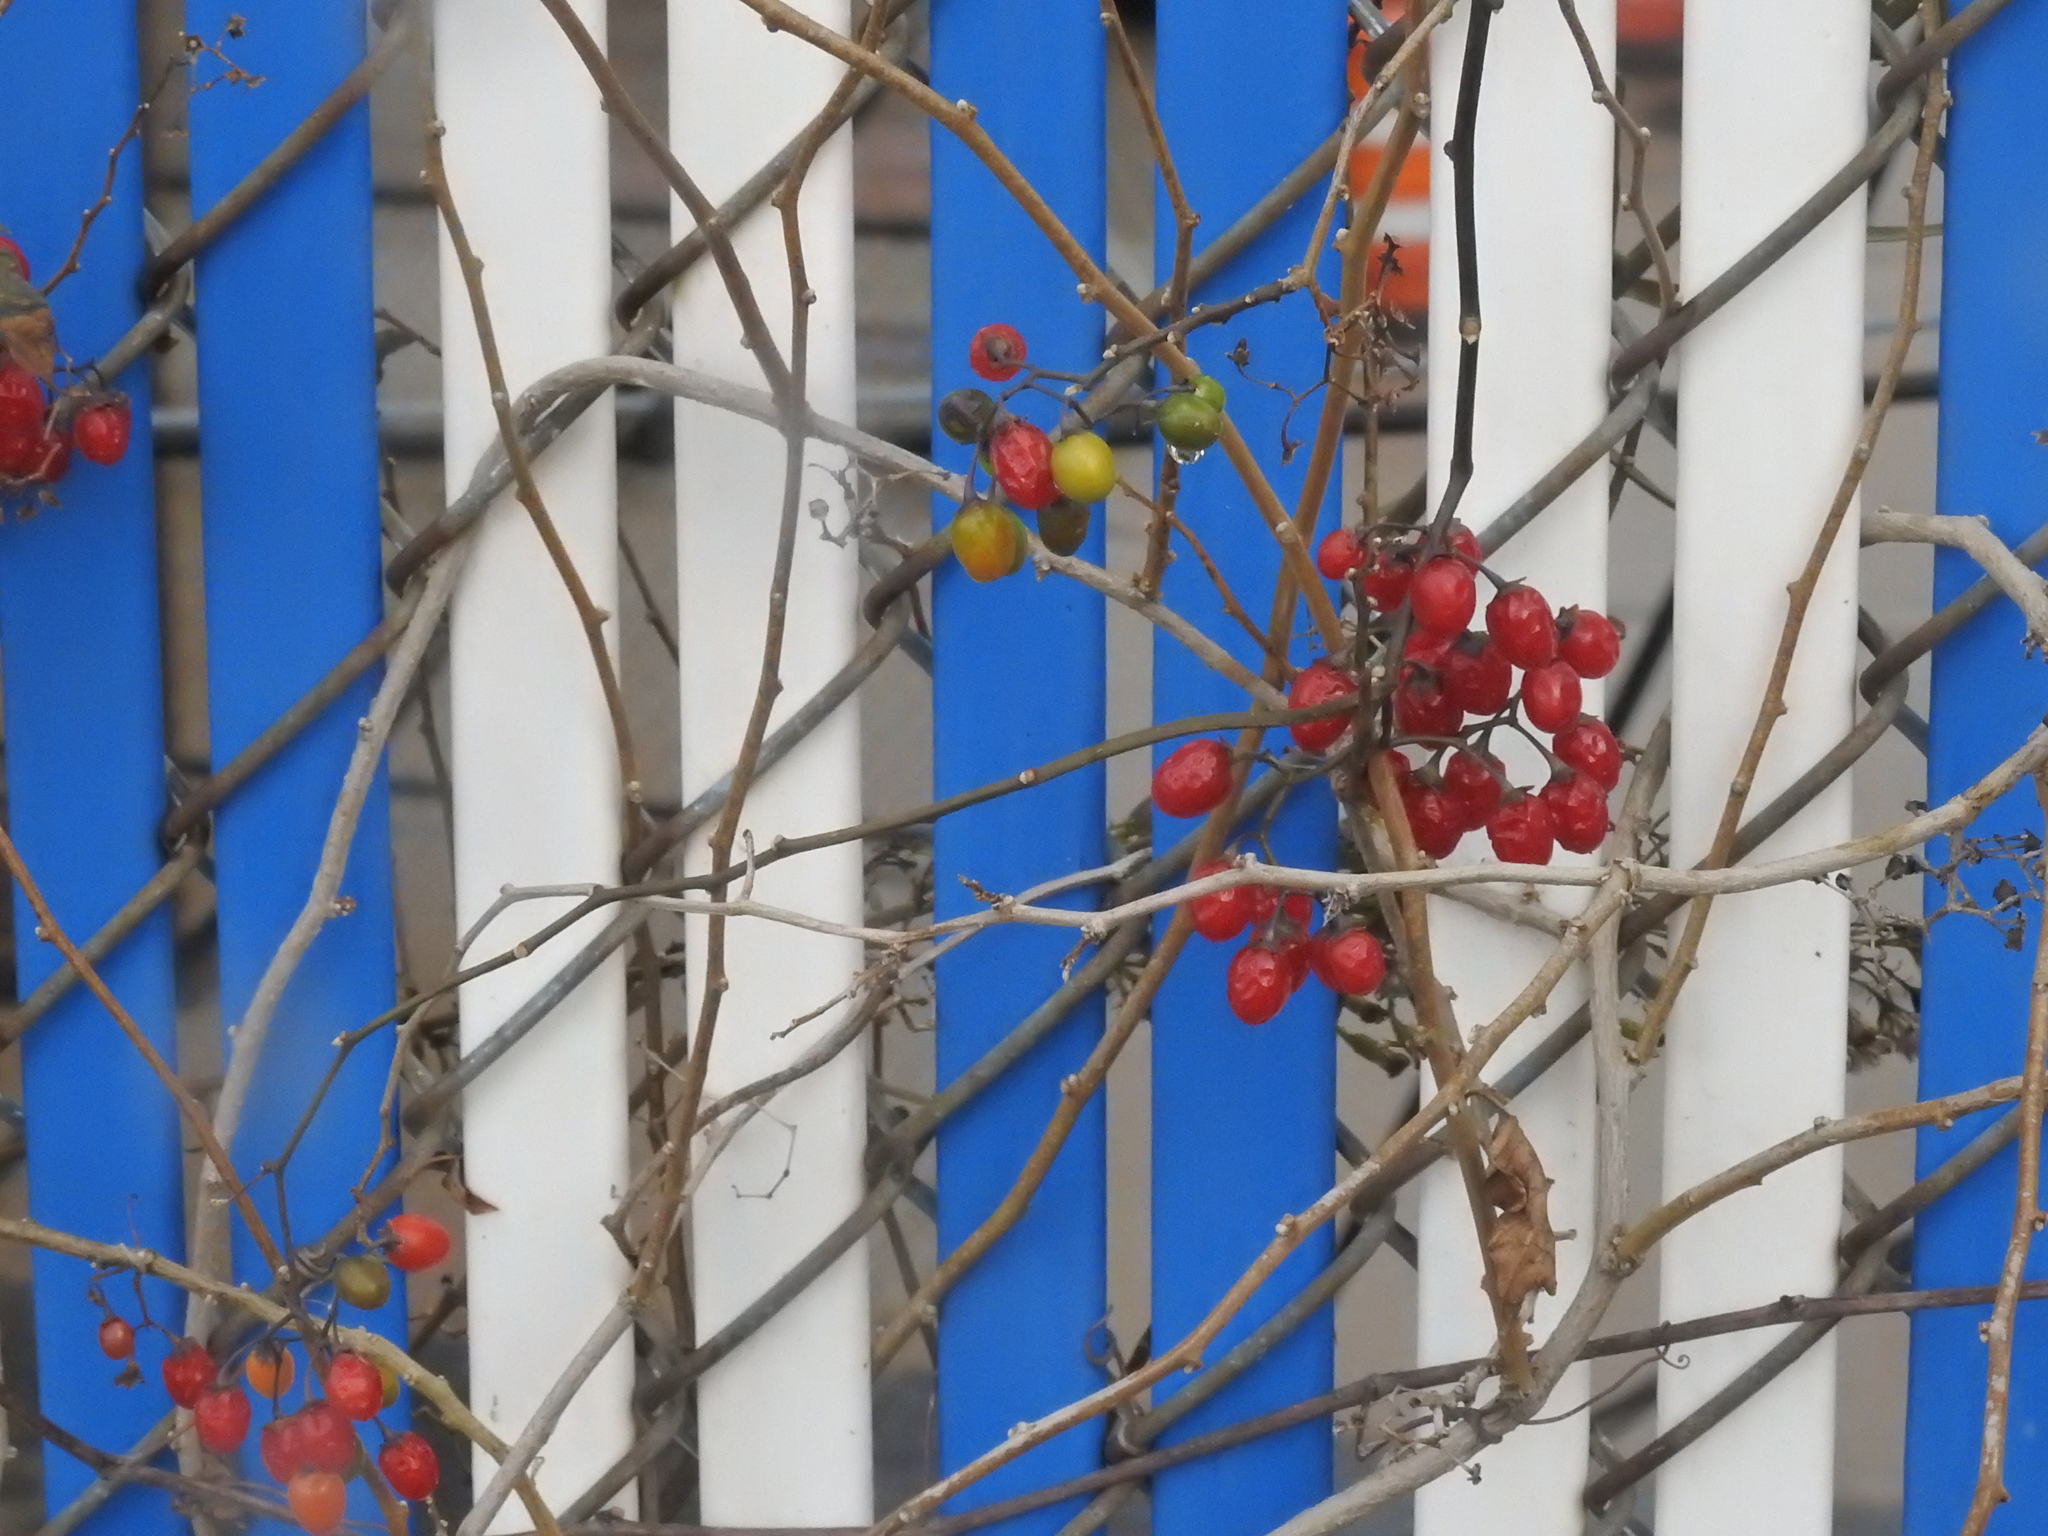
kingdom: Plantae
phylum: Tracheophyta
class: Magnoliopsida
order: Solanales
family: Solanaceae
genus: Solanum
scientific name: Solanum dulcamara
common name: Climbing nightshade
